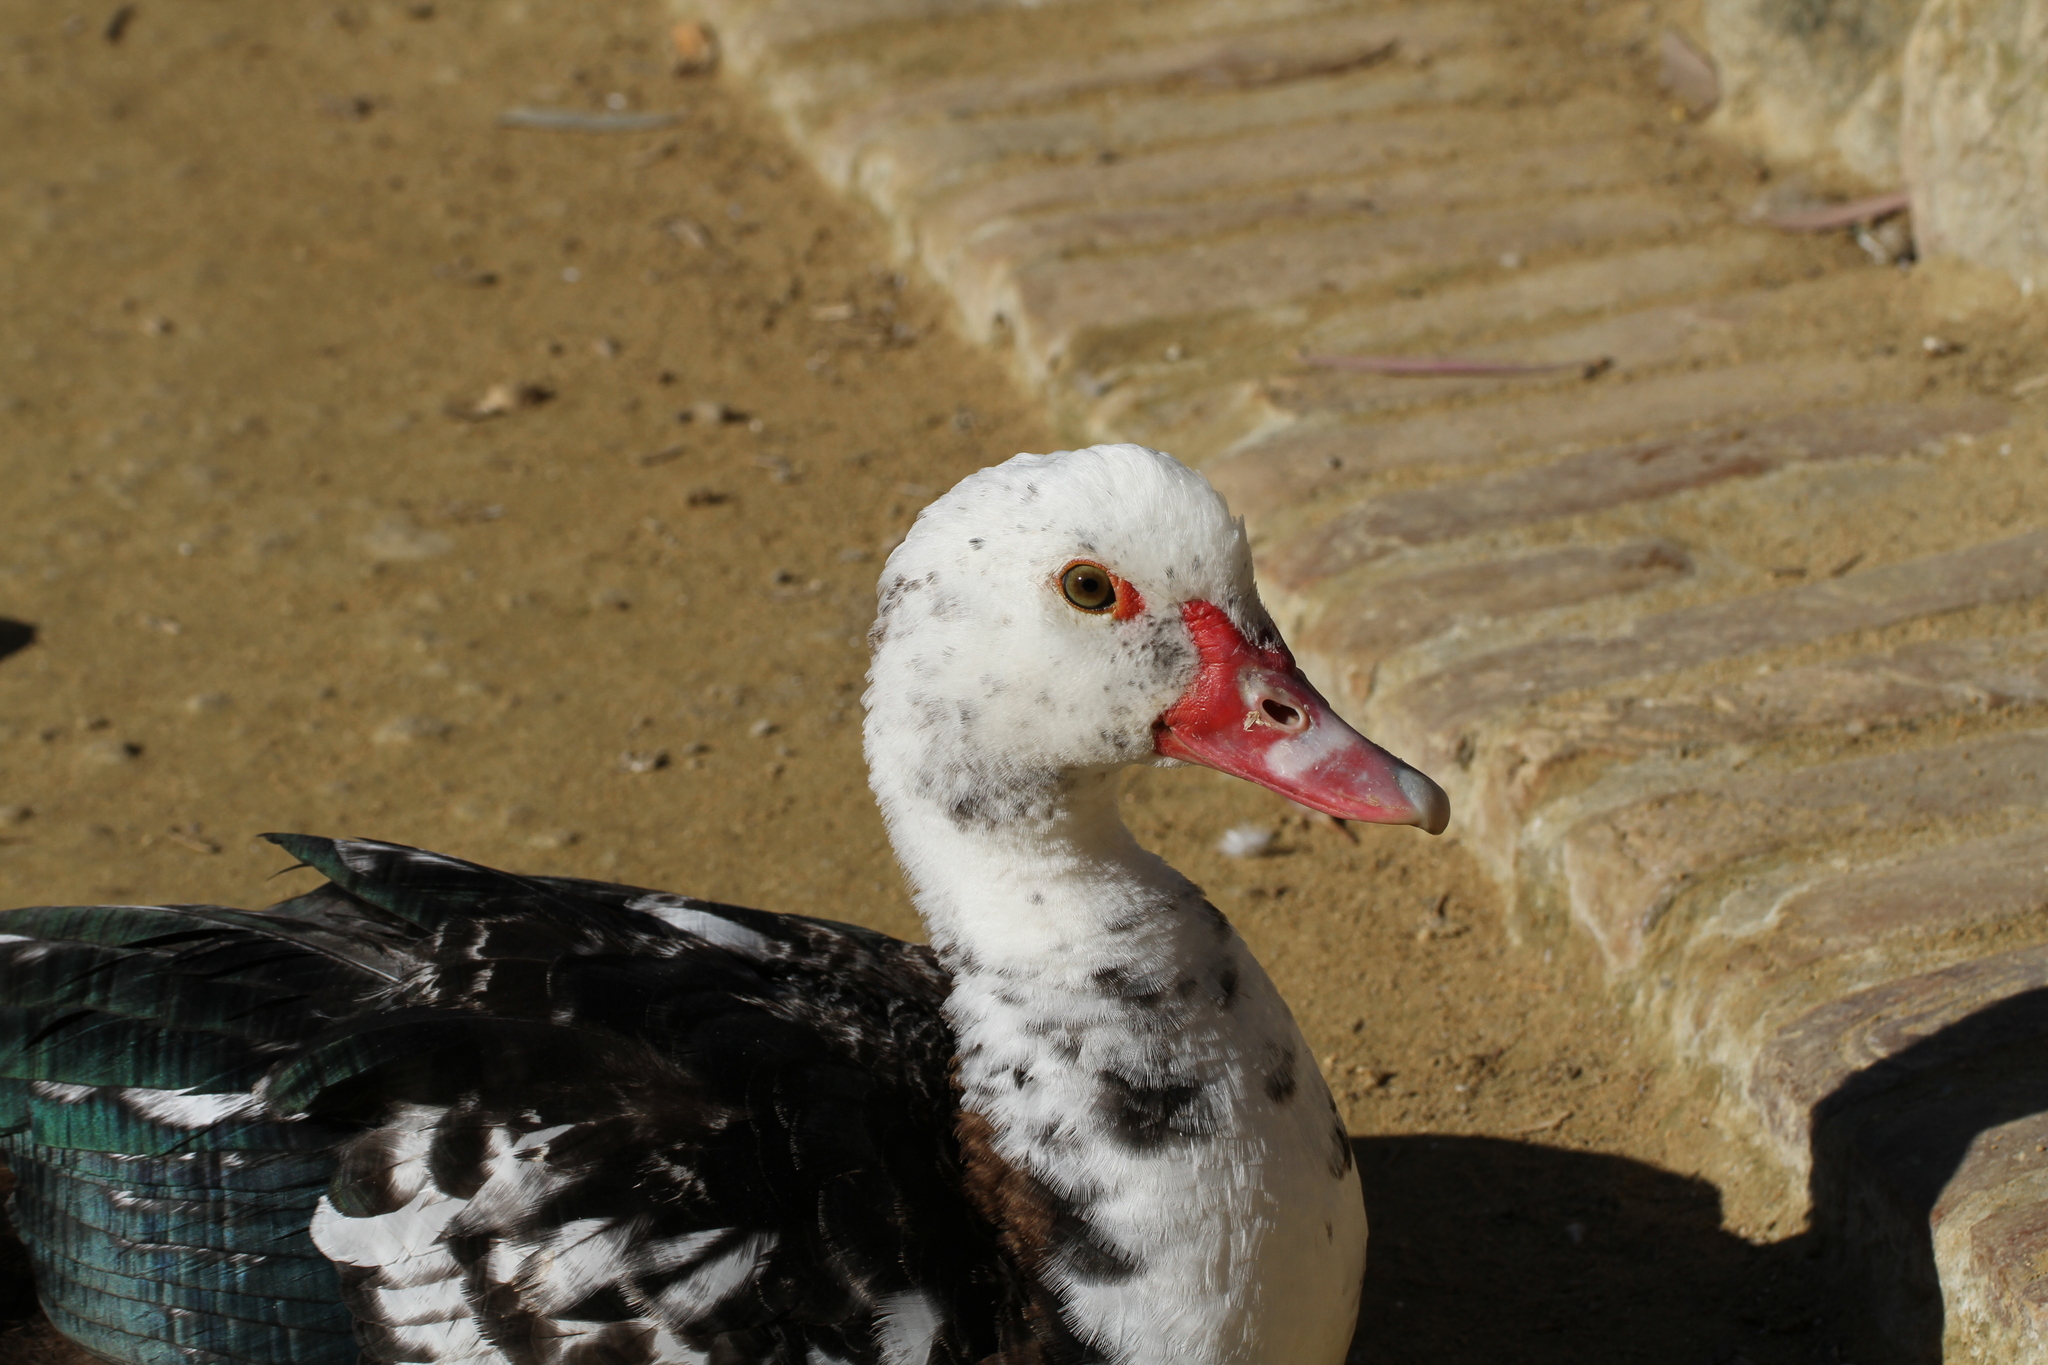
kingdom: Animalia
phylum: Chordata
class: Aves
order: Anseriformes
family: Anatidae
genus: Cairina
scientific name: Cairina moschata
